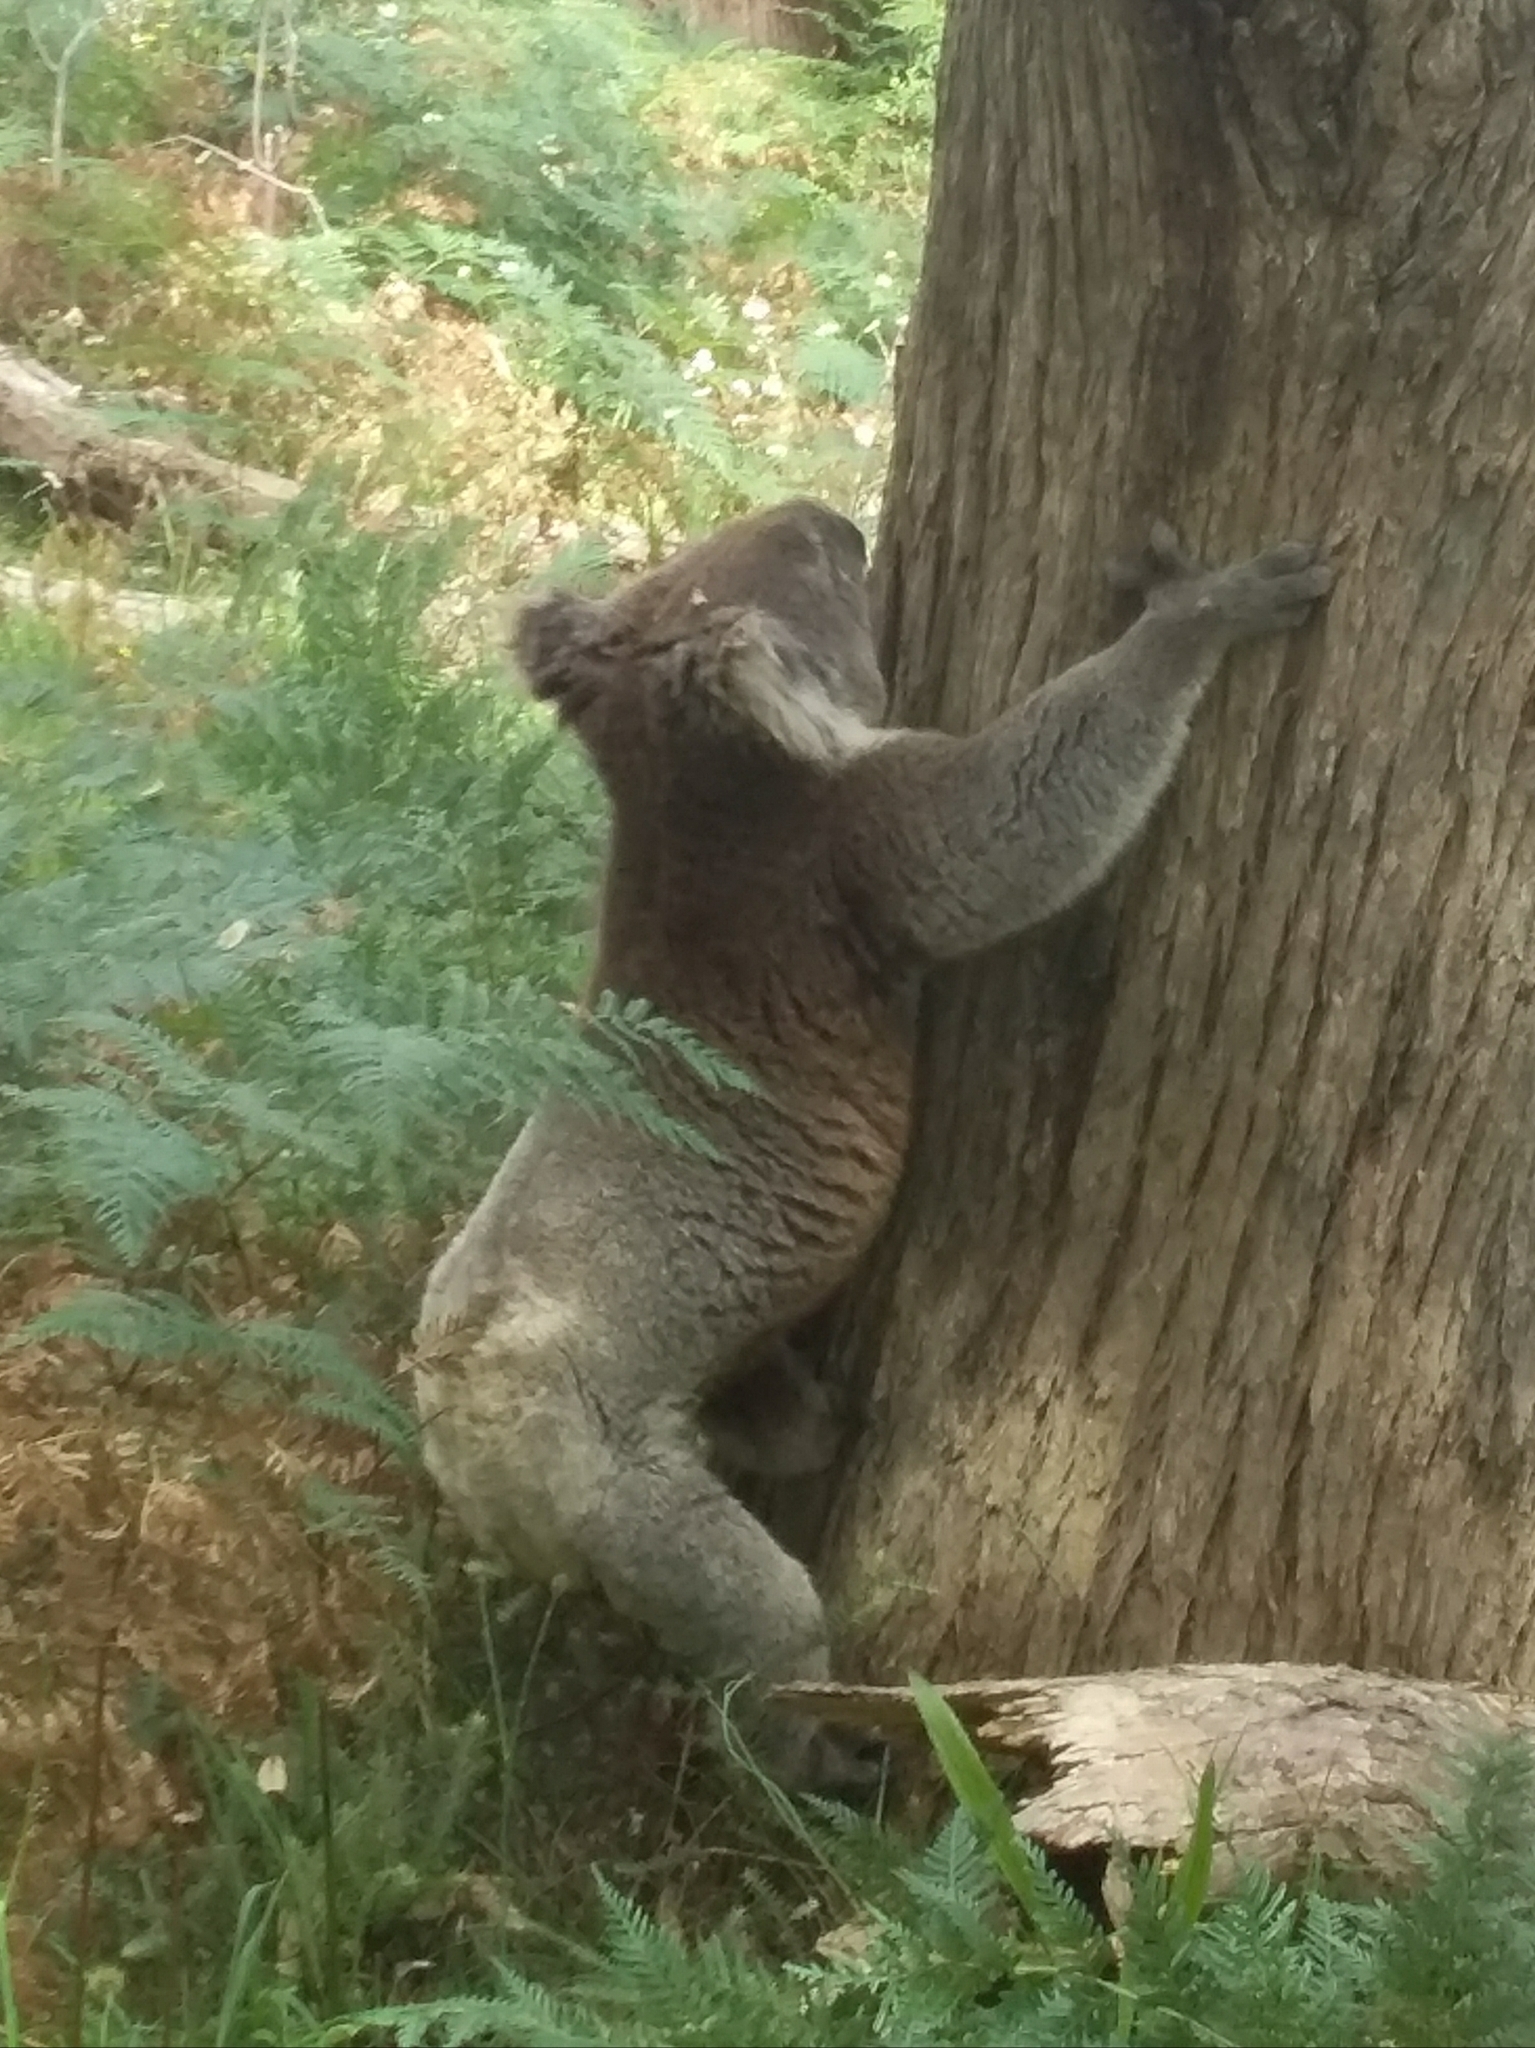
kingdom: Animalia
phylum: Chordata
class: Mammalia
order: Diprotodontia
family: Phascolarctidae
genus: Phascolarctos
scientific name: Phascolarctos cinereus
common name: Koala
